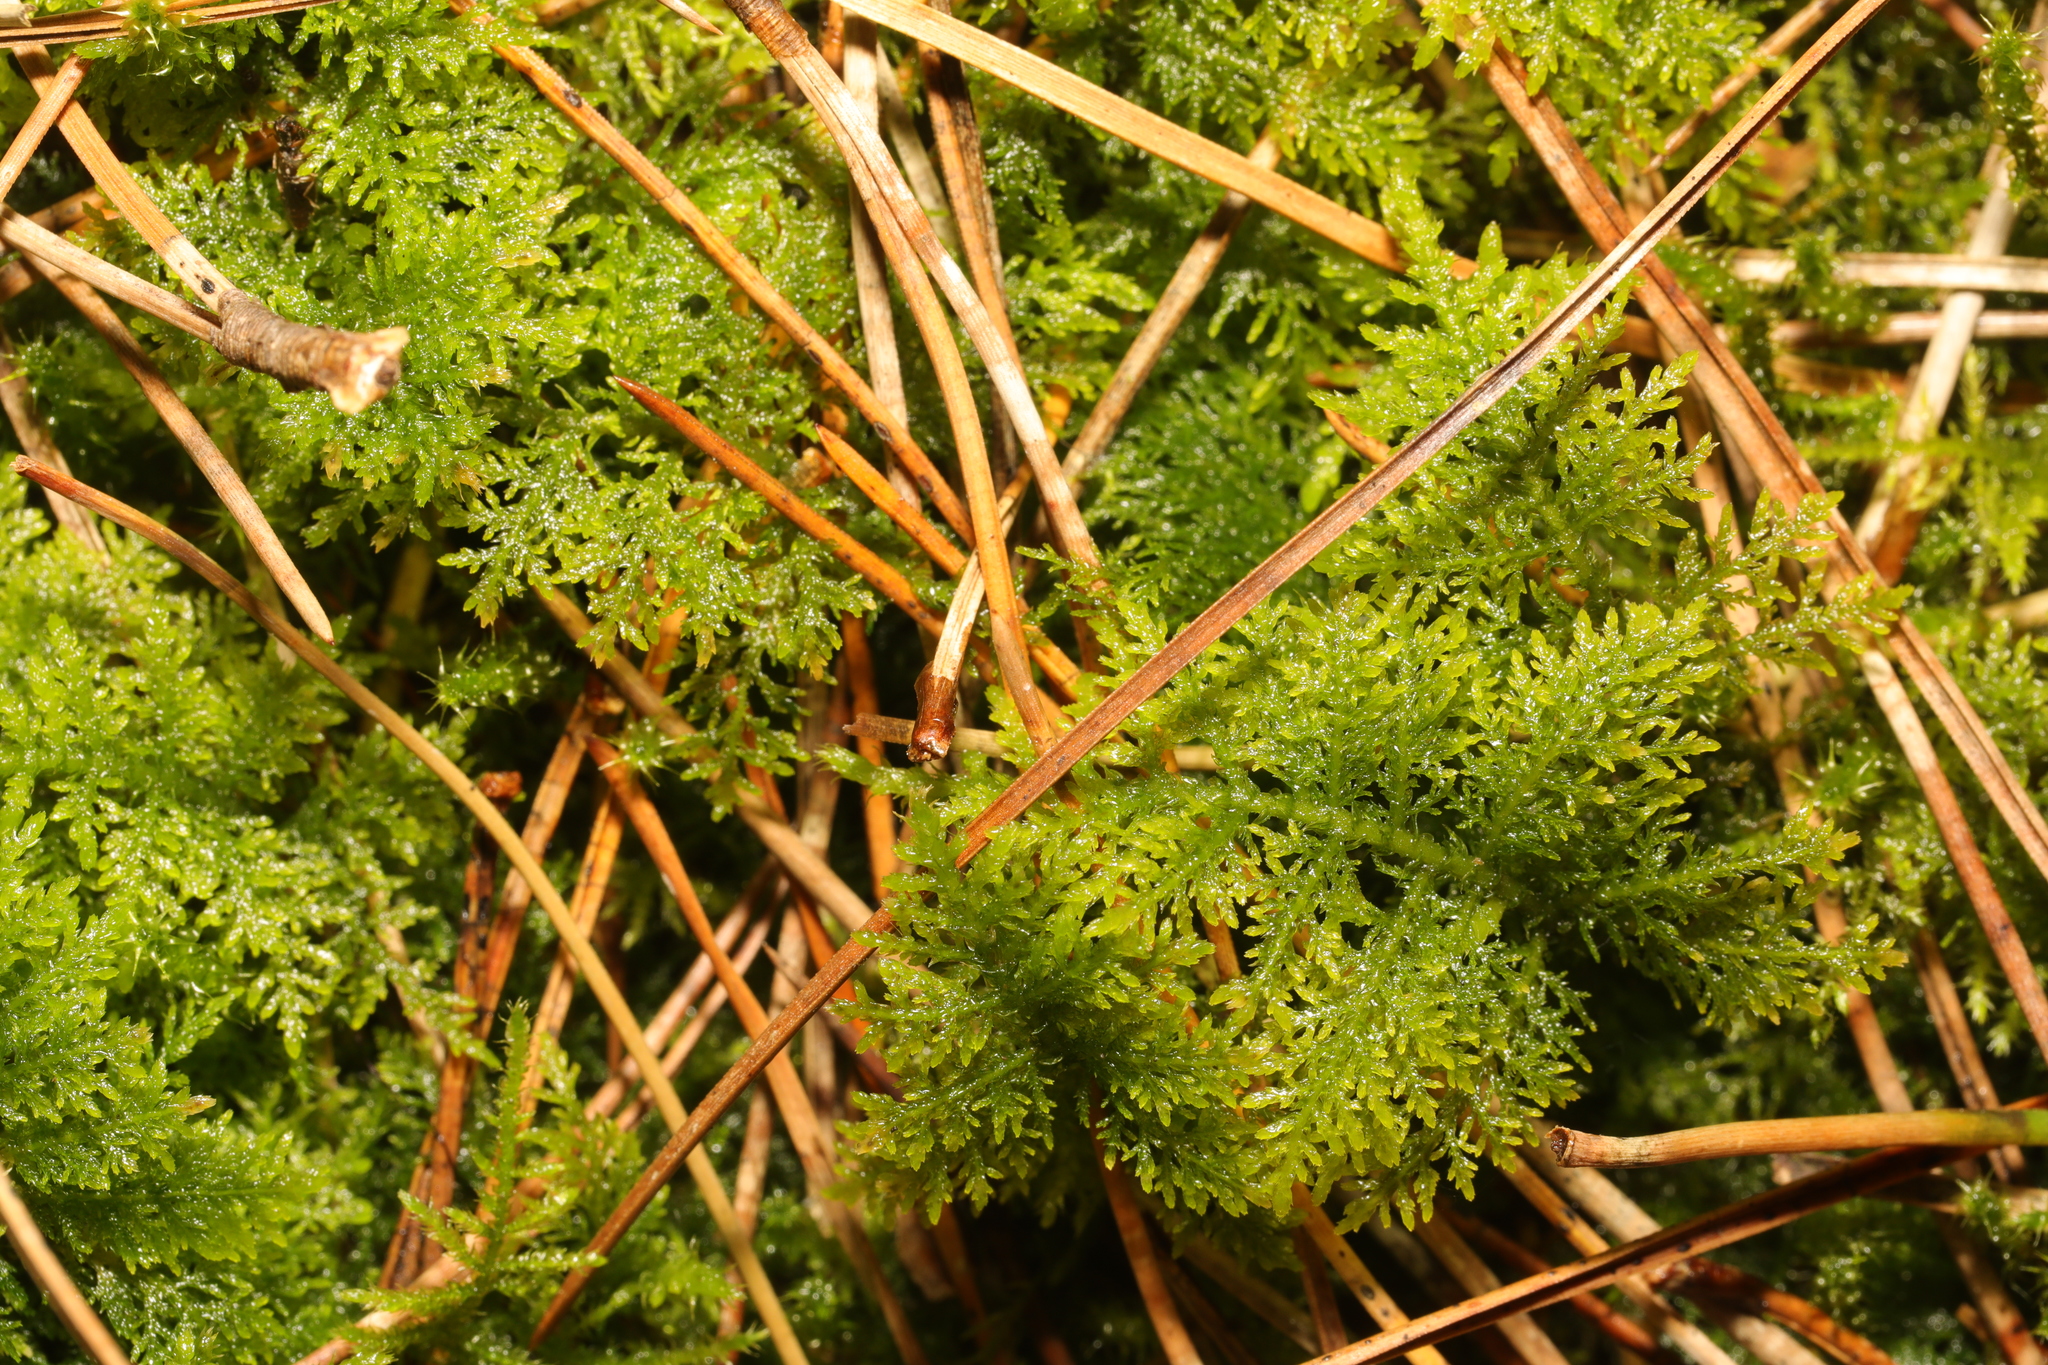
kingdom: Plantae
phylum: Bryophyta
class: Bryopsida
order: Hypnales
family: Thuidiaceae
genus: Thuidium
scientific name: Thuidium tamariscinum
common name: Common tamarisk-moss
